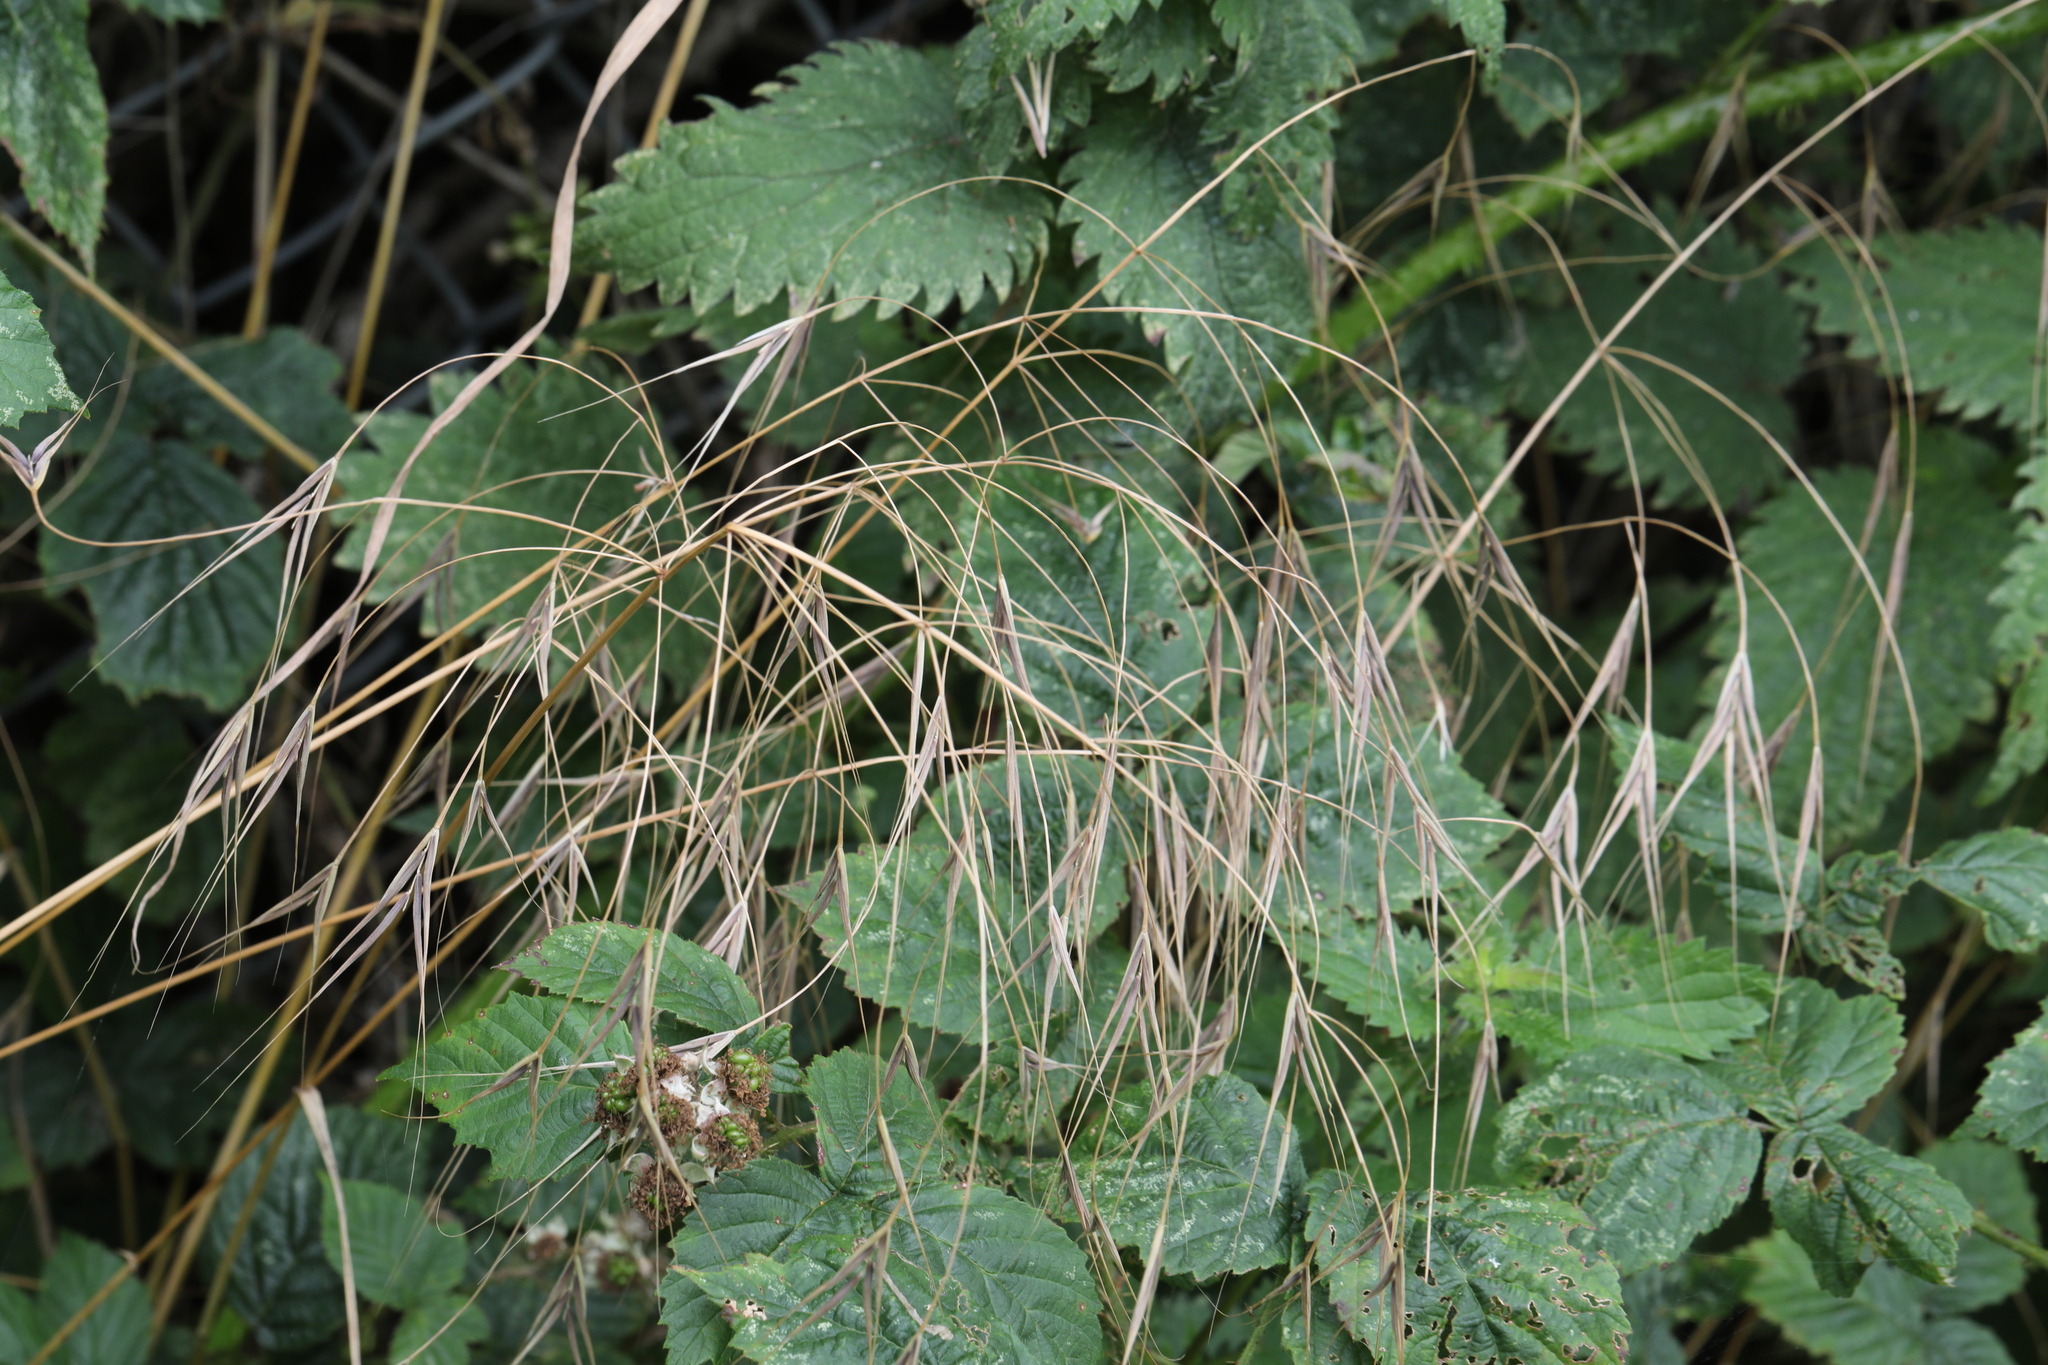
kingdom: Plantae
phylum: Tracheophyta
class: Liliopsida
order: Poales
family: Poaceae
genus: Bromus
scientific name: Bromus sterilis
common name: Poverty brome
